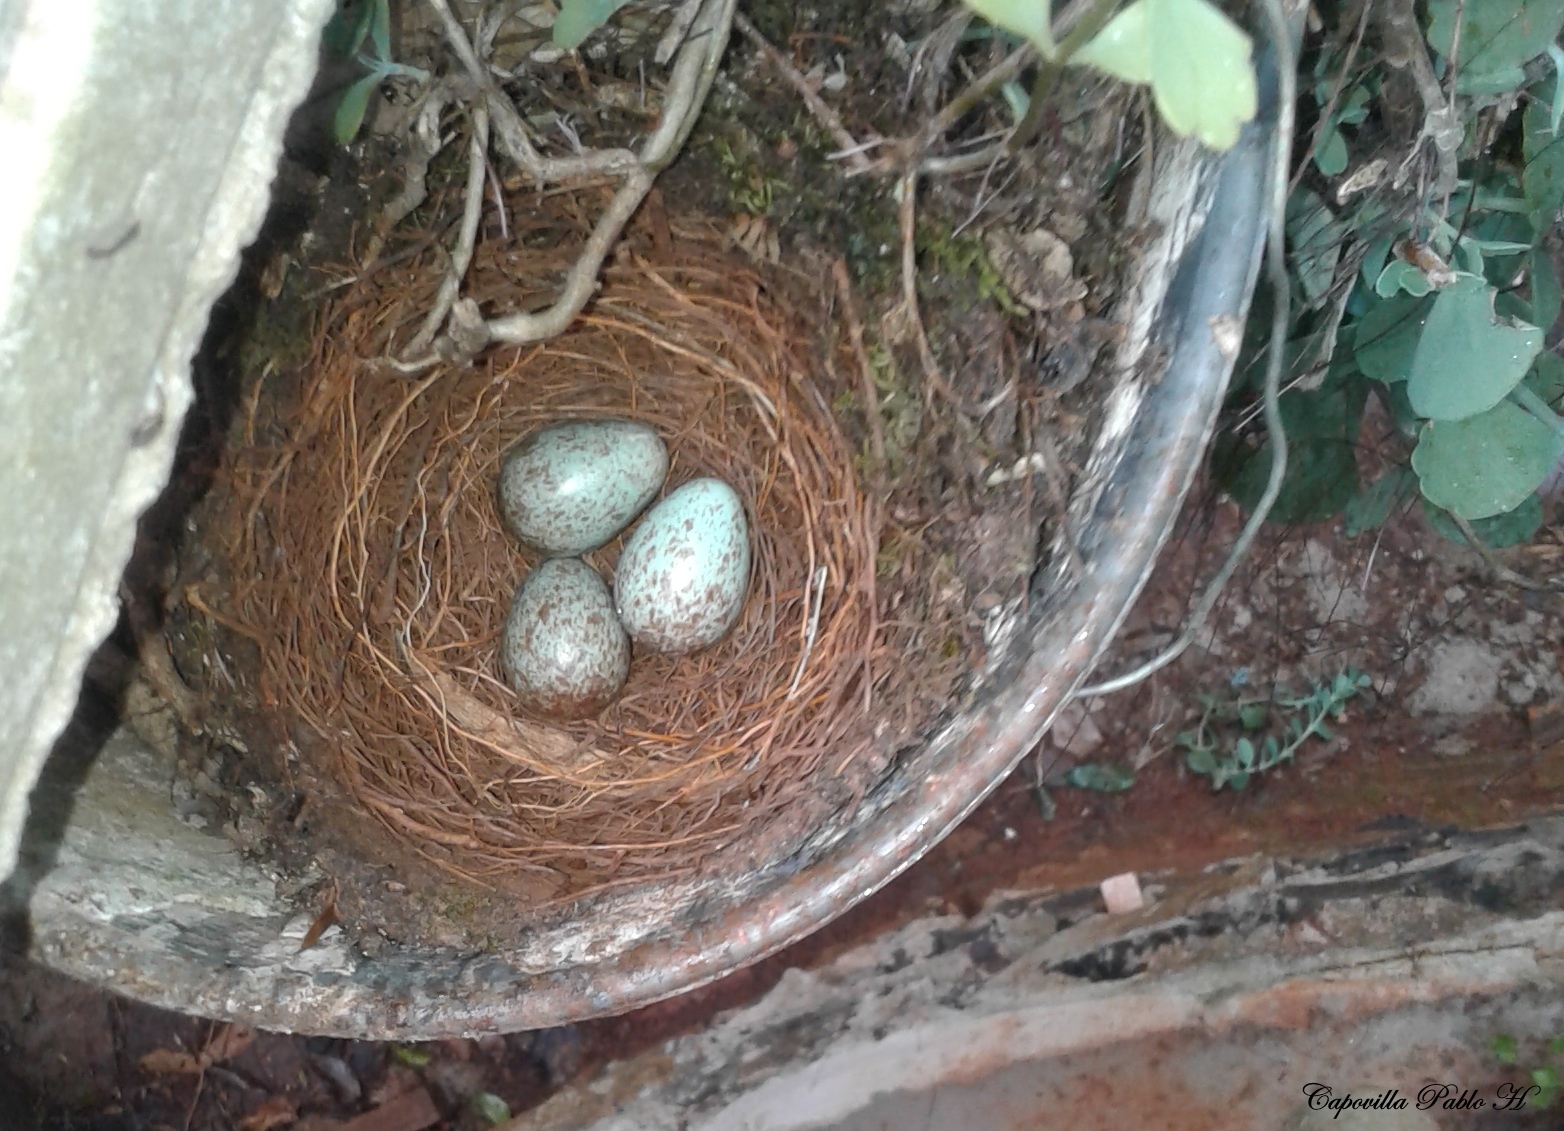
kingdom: Animalia
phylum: Chordata
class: Aves
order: Passeriformes
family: Turdidae
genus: Turdus
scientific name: Turdus leucomelas
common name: Pale-breasted thrush
